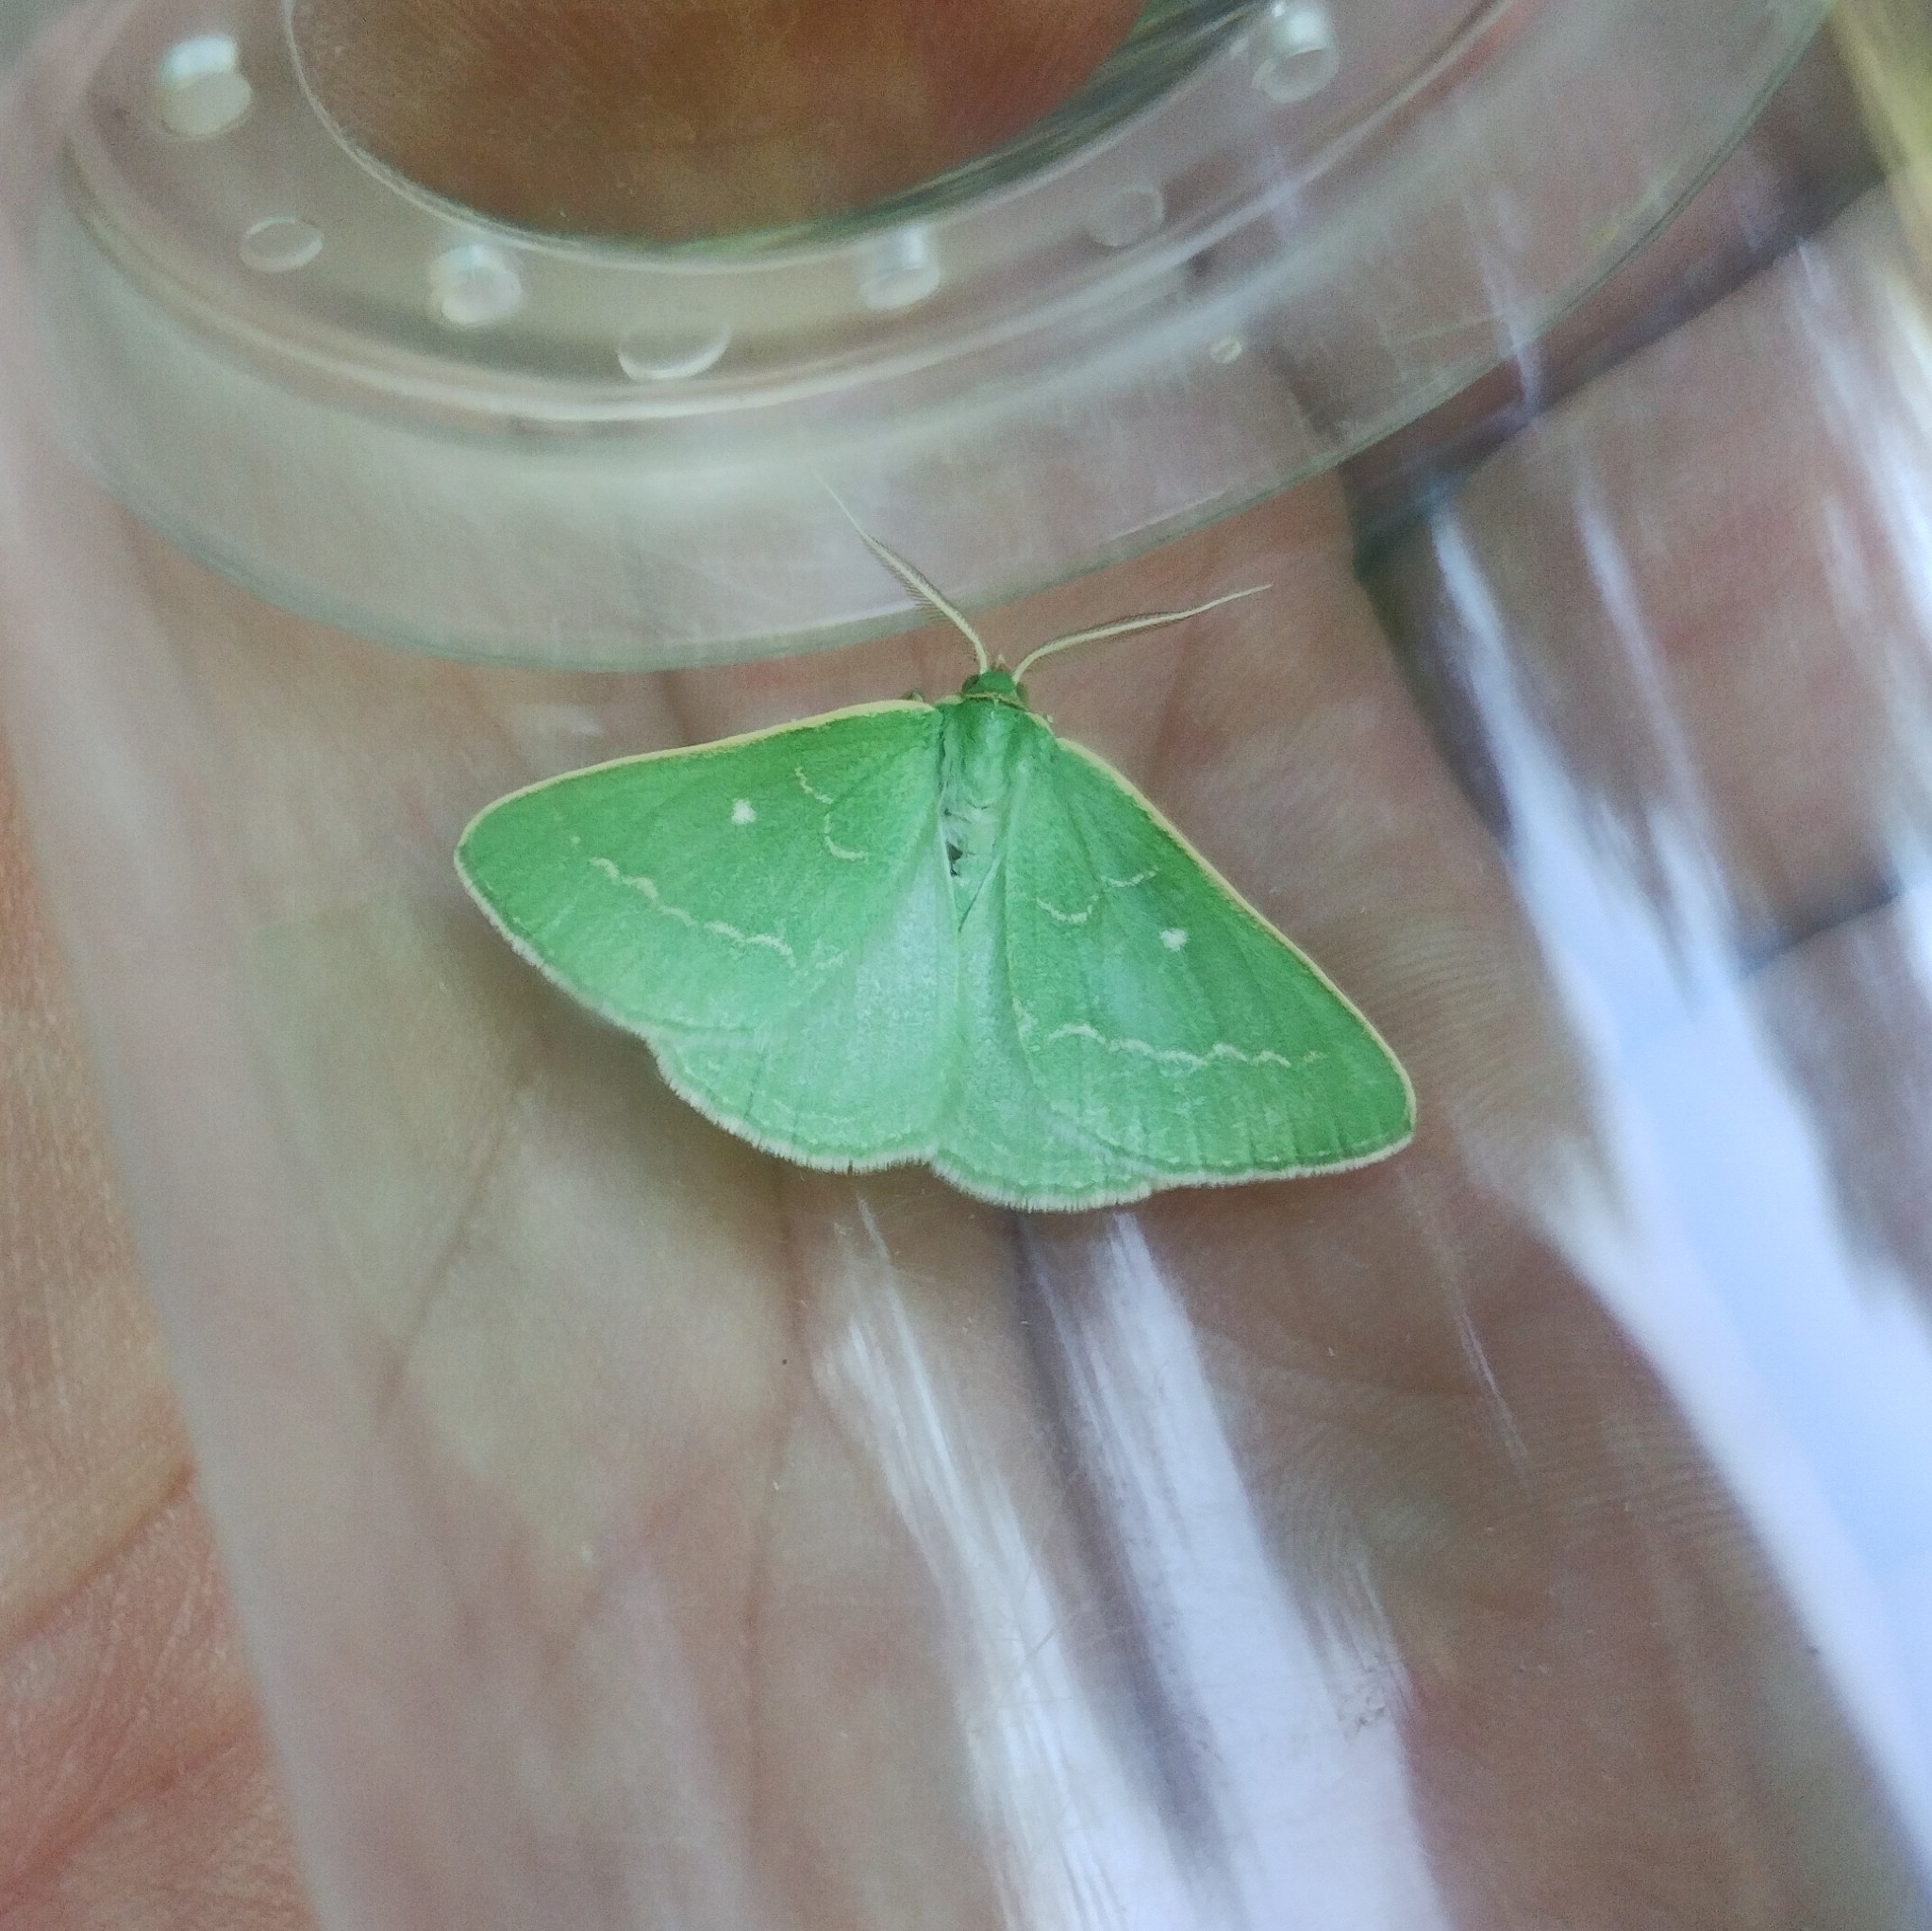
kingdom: Animalia
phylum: Arthropoda
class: Insecta
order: Lepidoptera
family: Geometridae
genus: Thetidia
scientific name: Thetidia smaragdaria
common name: Essex emerald
